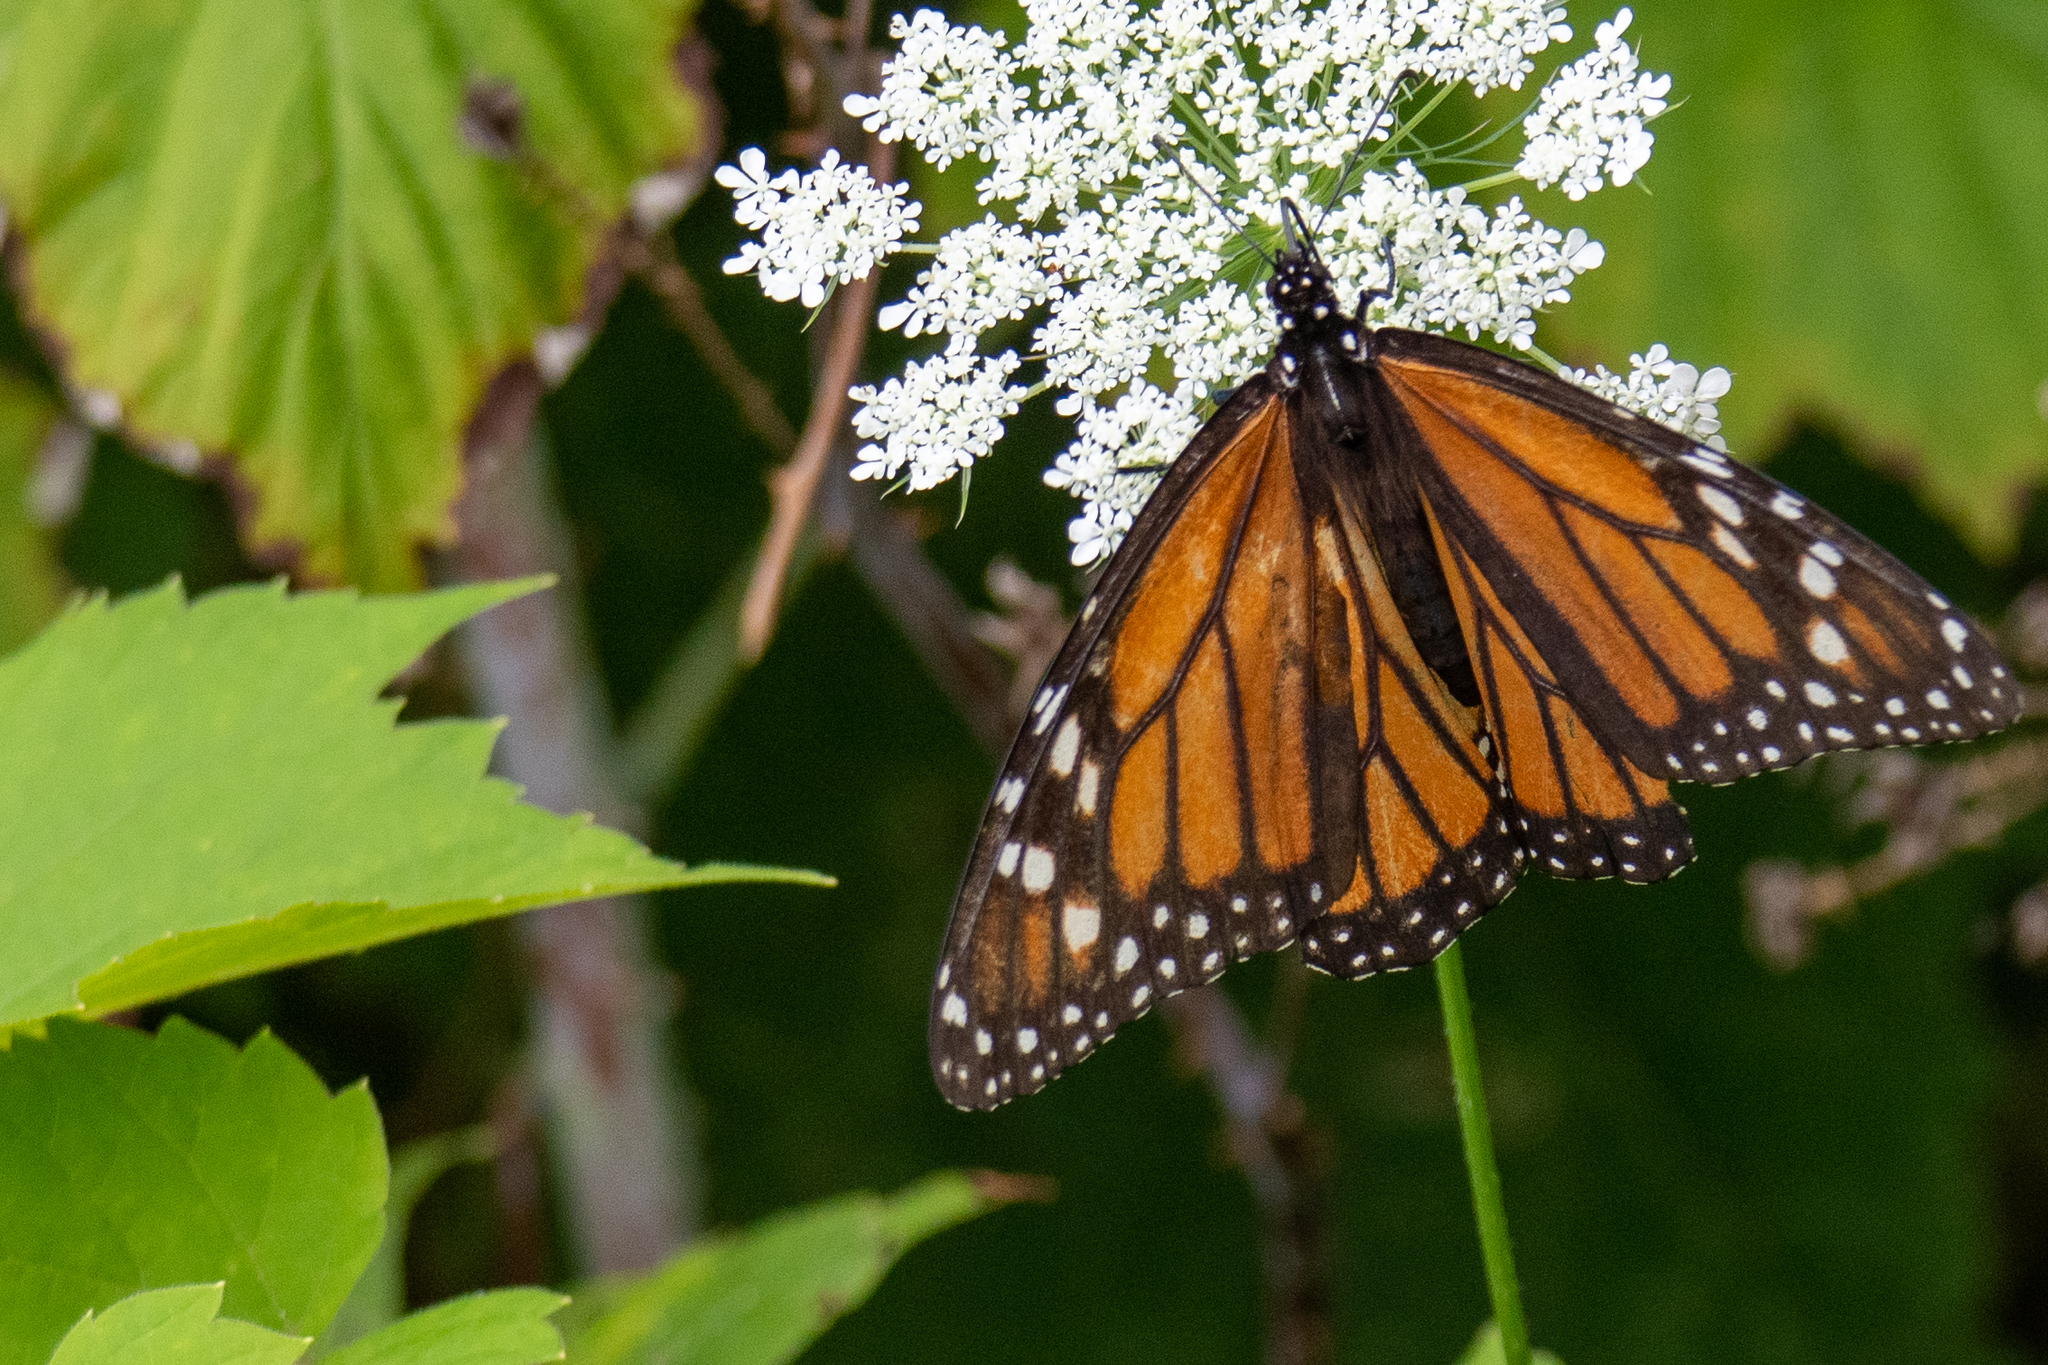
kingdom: Animalia
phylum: Arthropoda
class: Insecta
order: Lepidoptera
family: Nymphalidae
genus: Danaus
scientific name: Danaus plexippus
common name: Monarch
